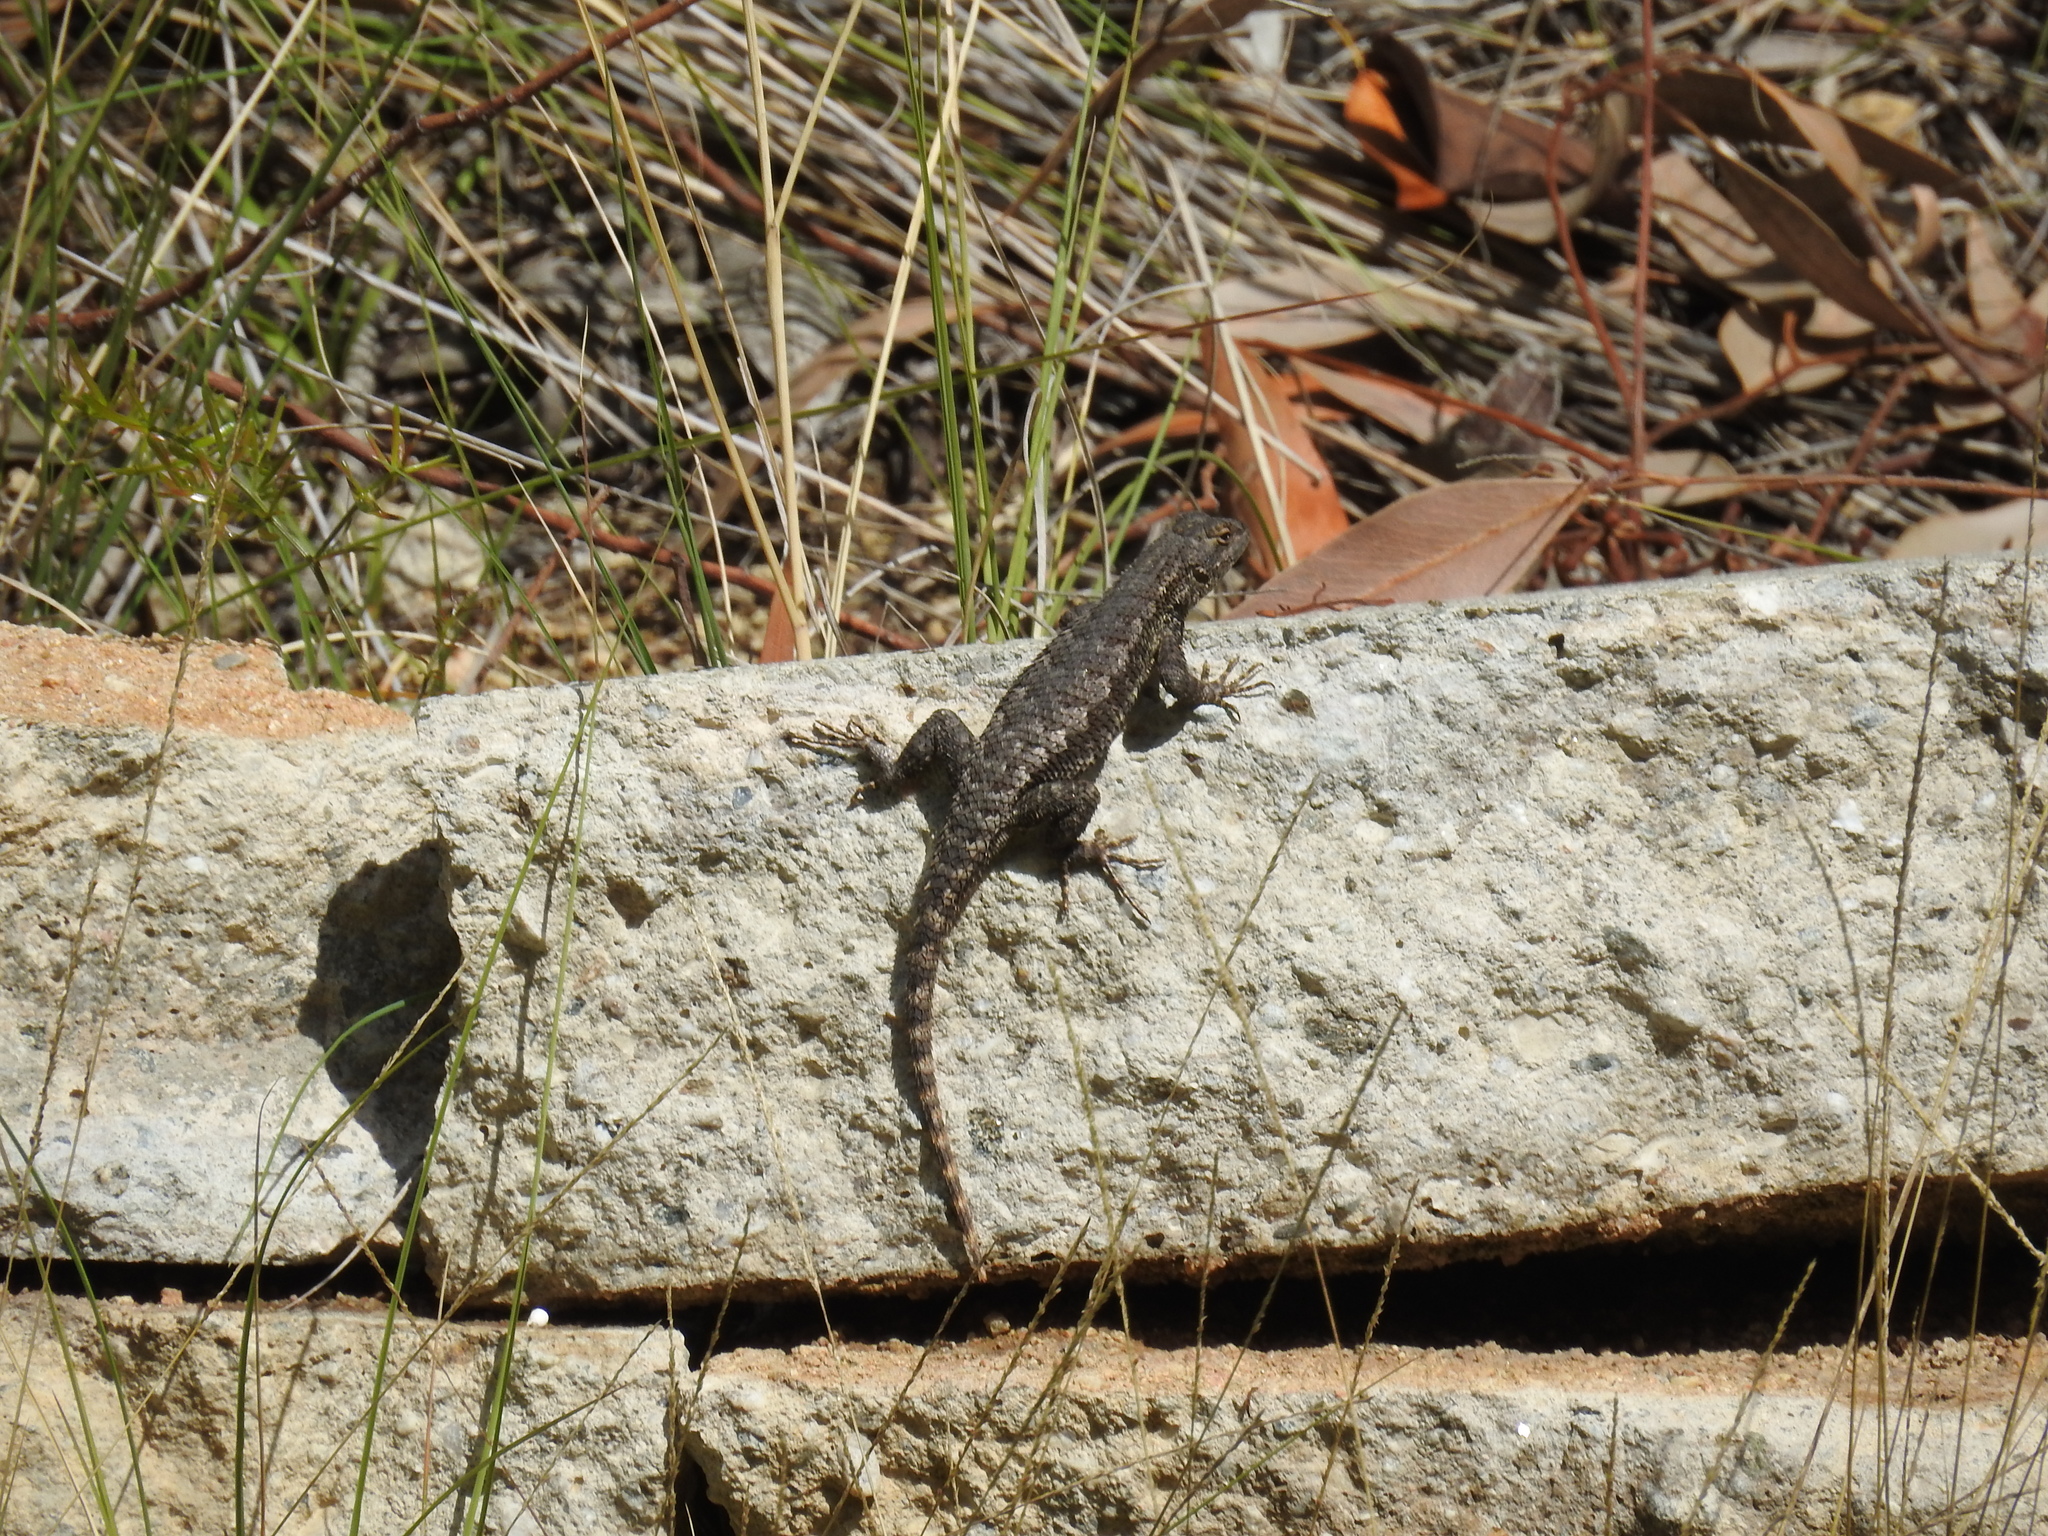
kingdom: Animalia
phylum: Chordata
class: Squamata
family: Phrynosomatidae
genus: Sceloporus
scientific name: Sceloporus occidentalis
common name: Western fence lizard
